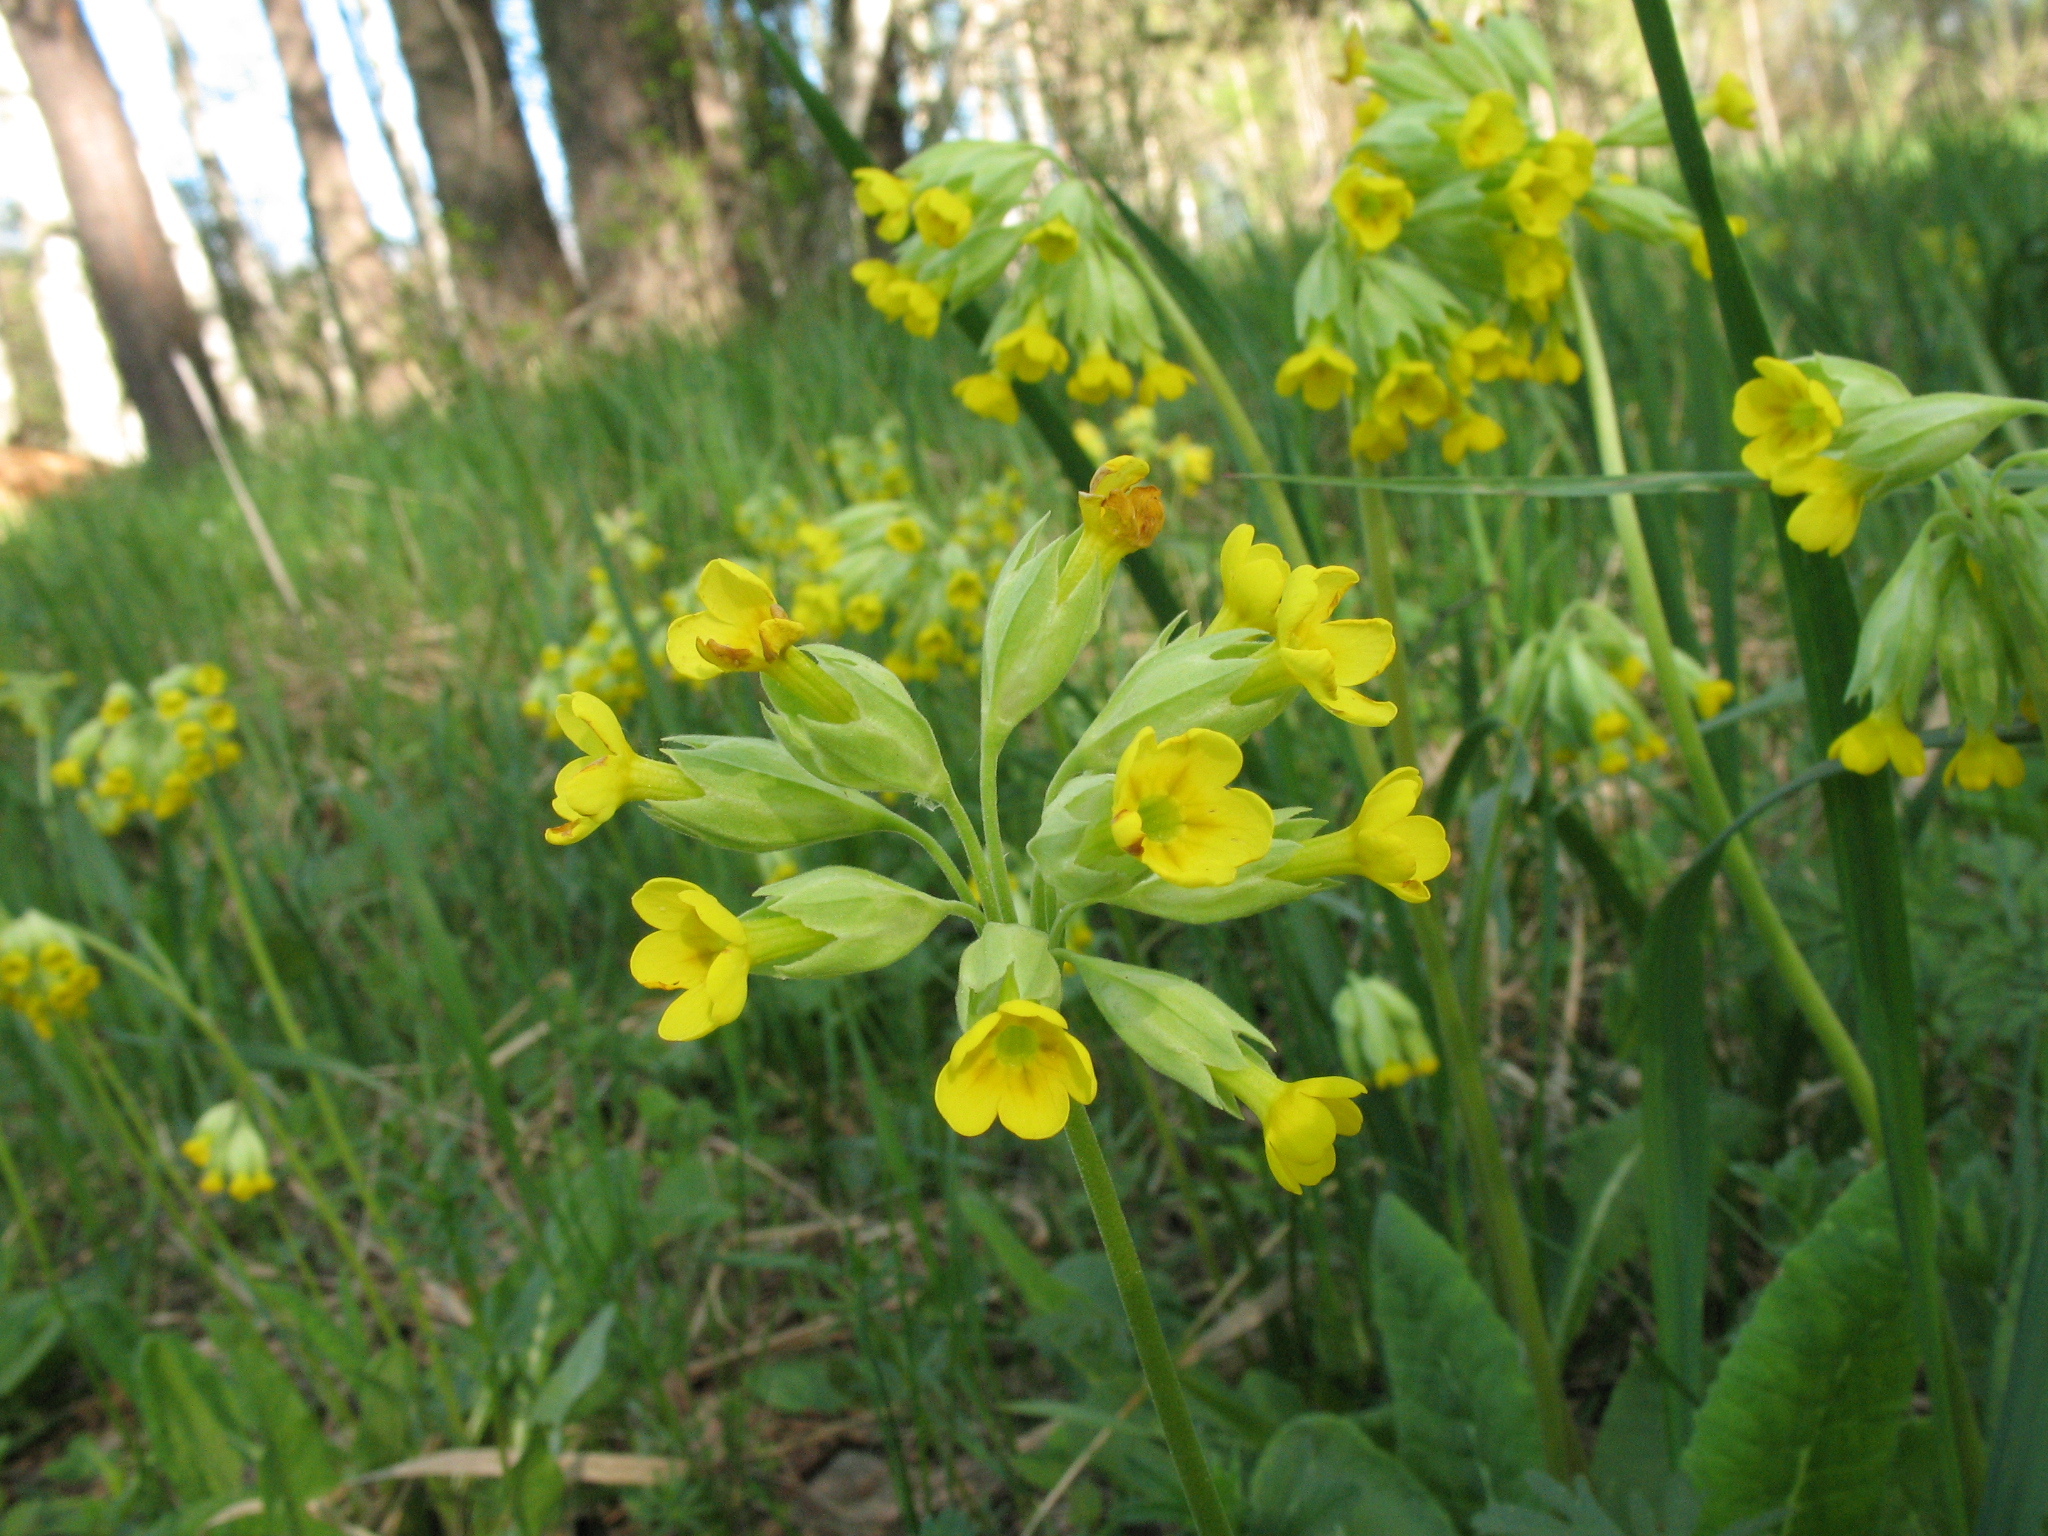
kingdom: Plantae
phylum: Tracheophyta
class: Magnoliopsida
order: Ericales
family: Primulaceae
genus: Primula
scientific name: Primula veris
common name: Cowslip
